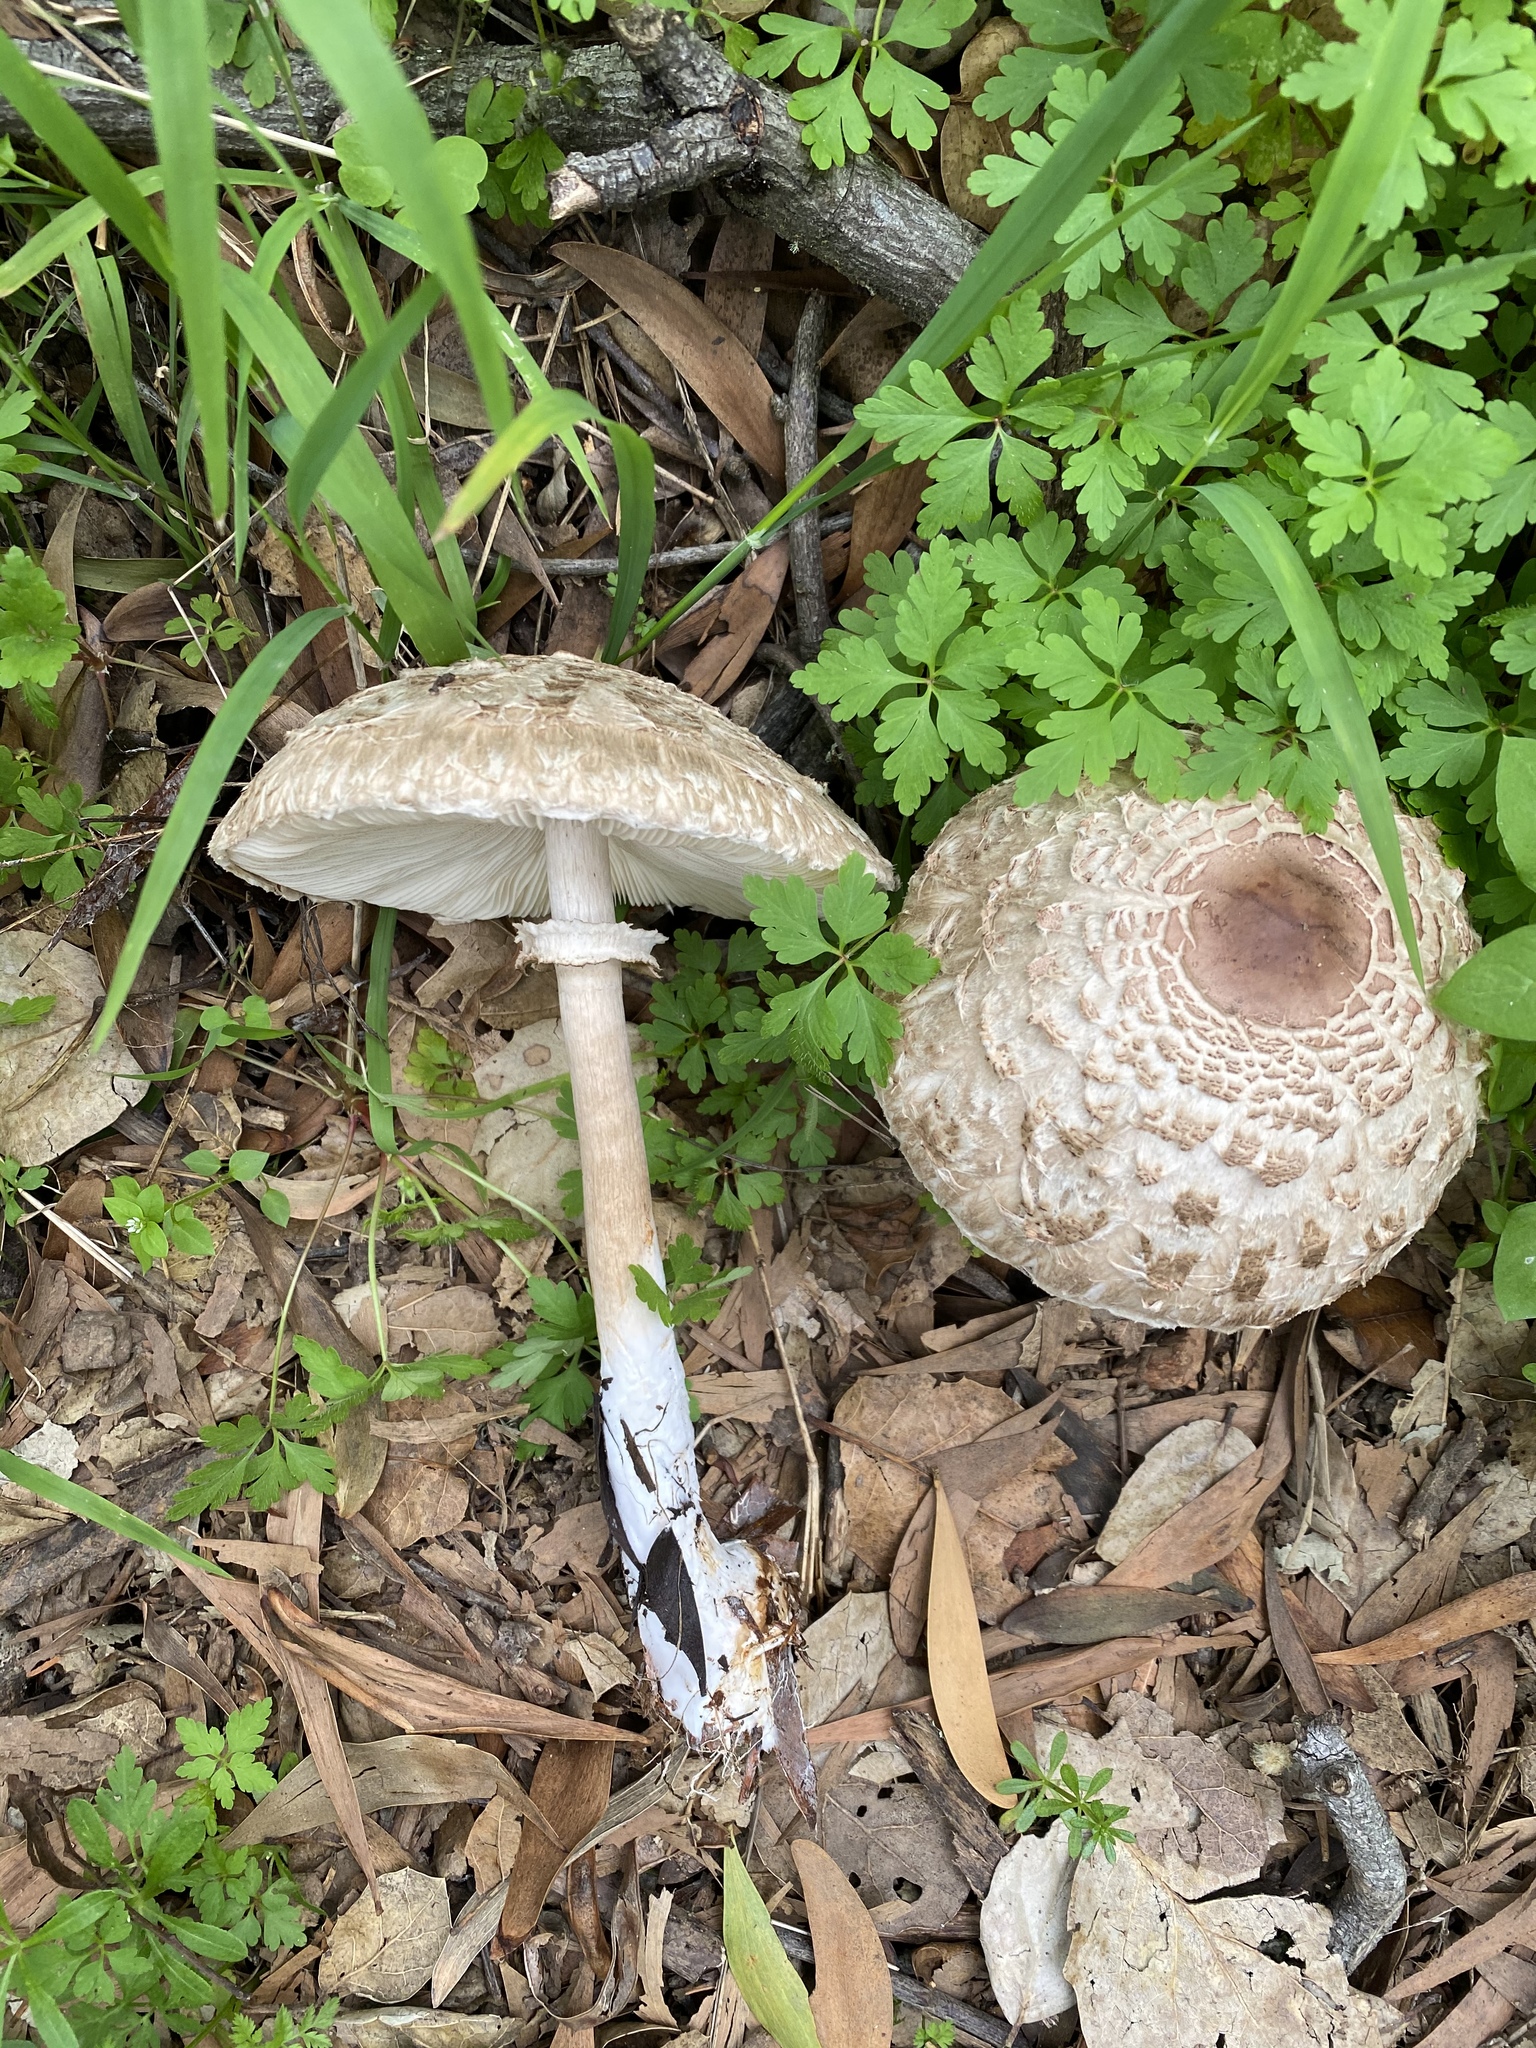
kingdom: Fungi
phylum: Basidiomycota
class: Agaricomycetes
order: Agaricales
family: Agaricaceae
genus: Chlorophyllum
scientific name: Chlorophyllum brunneum
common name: Brown parasol
